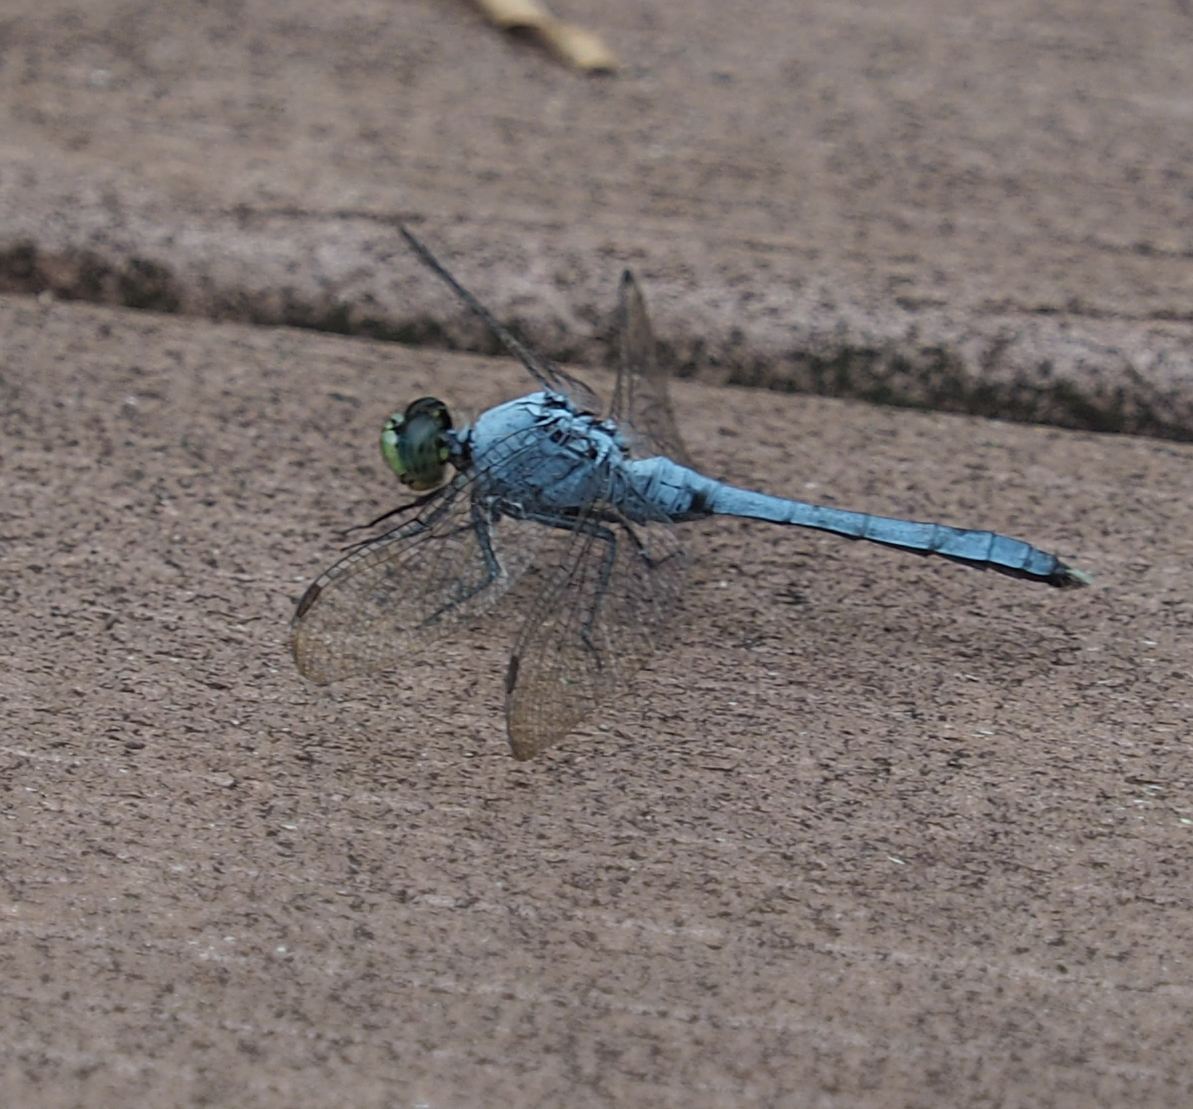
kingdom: Animalia
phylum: Arthropoda
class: Insecta
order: Odonata
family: Libellulidae
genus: Erythemis
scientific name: Erythemis simplicicollis
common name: Eastern pondhawk
